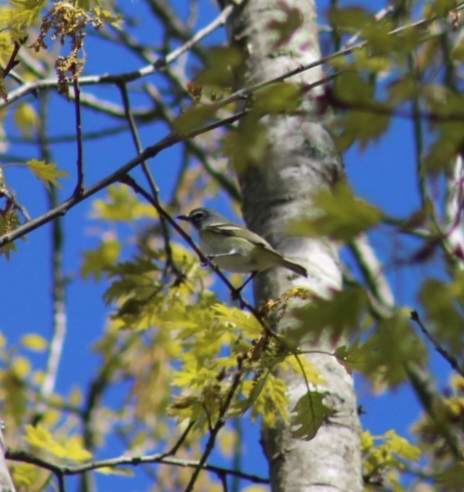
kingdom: Animalia
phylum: Chordata
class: Aves
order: Passeriformes
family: Vireonidae
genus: Vireo
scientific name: Vireo solitarius
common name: Blue-headed vireo
